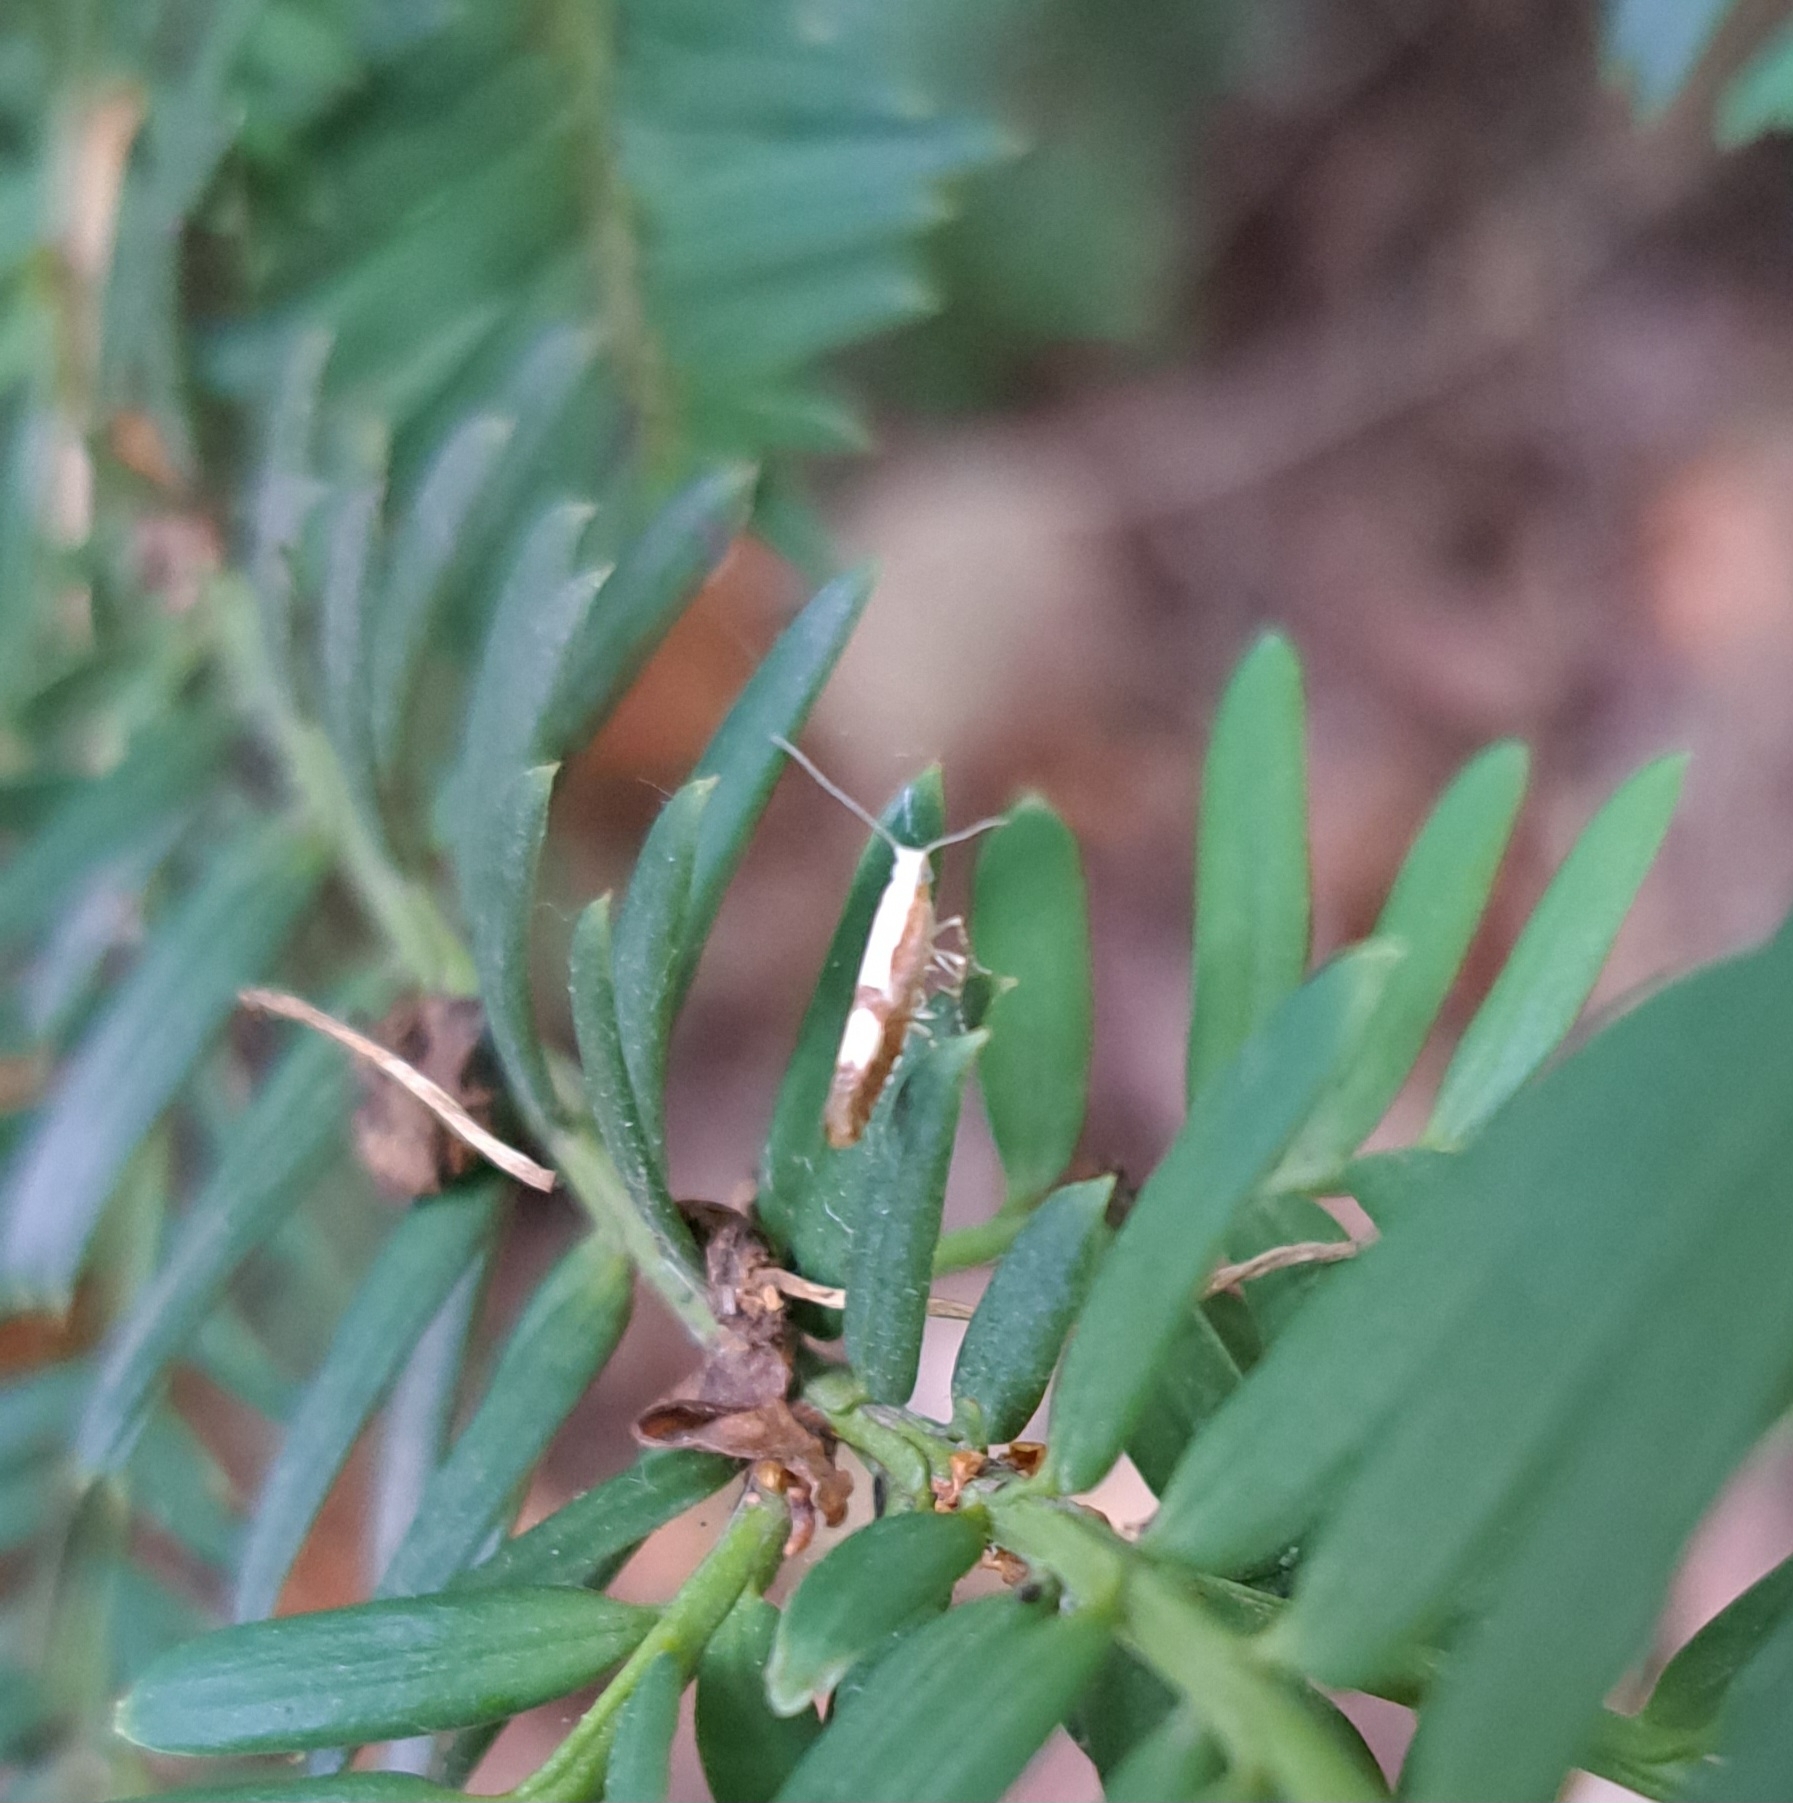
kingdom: Animalia
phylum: Arthropoda
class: Insecta
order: Lepidoptera
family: Argyresthiidae
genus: Argyresthia
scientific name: Argyresthia pruniella
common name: Cherry fruit moth
